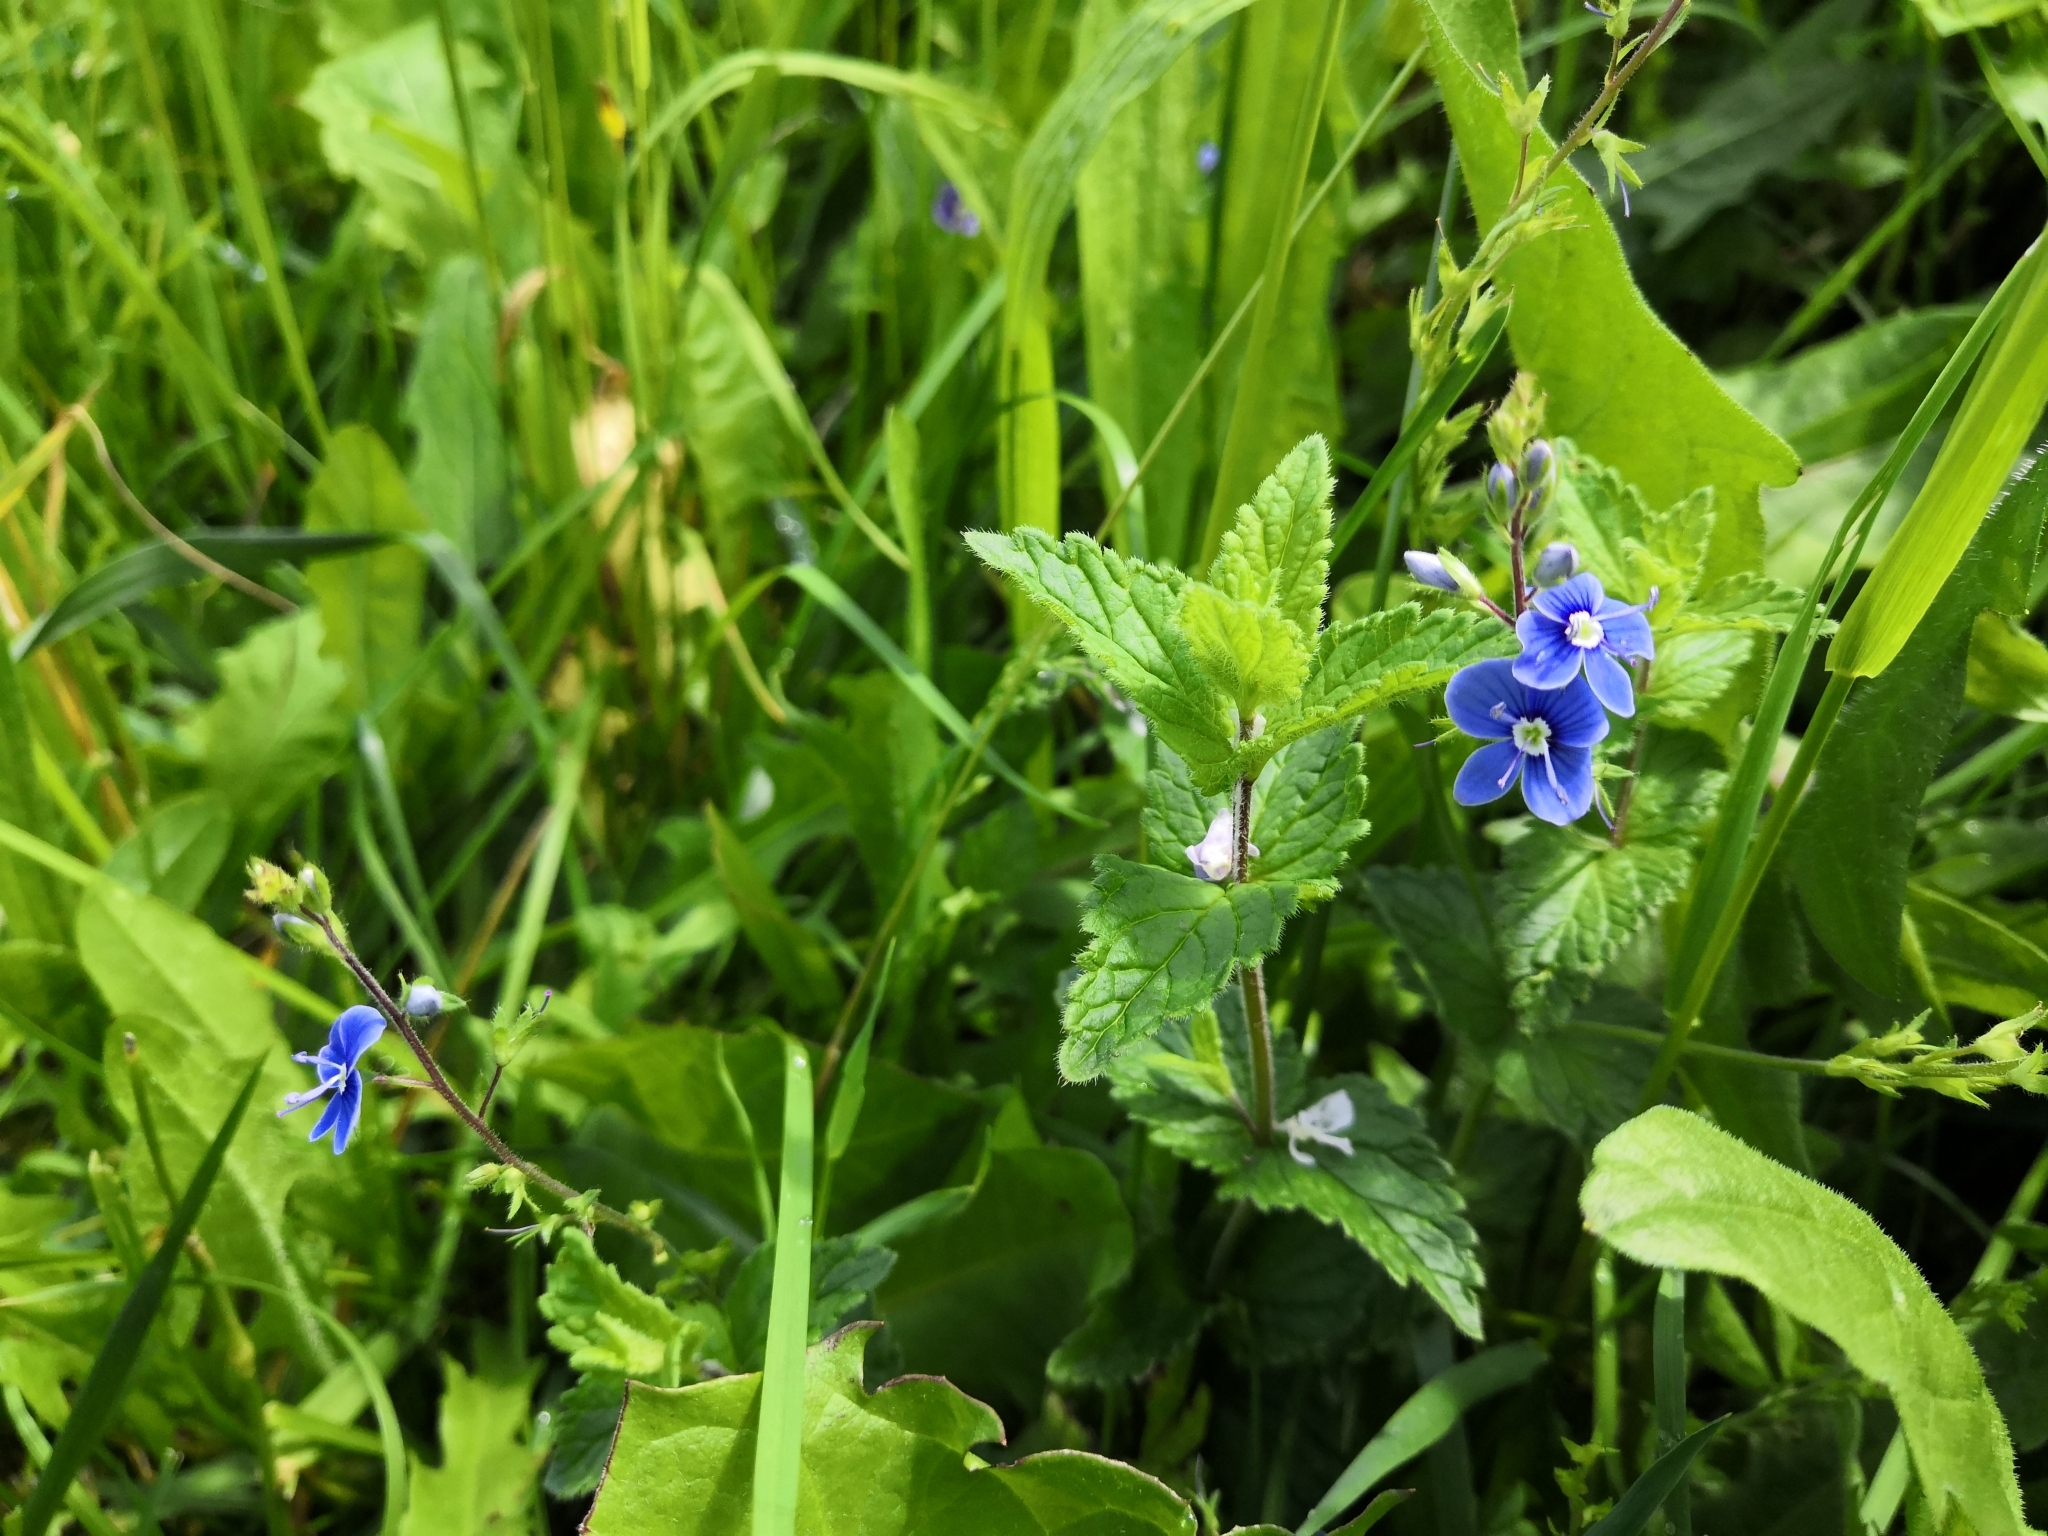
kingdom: Plantae
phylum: Tracheophyta
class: Magnoliopsida
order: Lamiales
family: Plantaginaceae
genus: Veronica
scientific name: Veronica chamaedrys
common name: Germander speedwell
